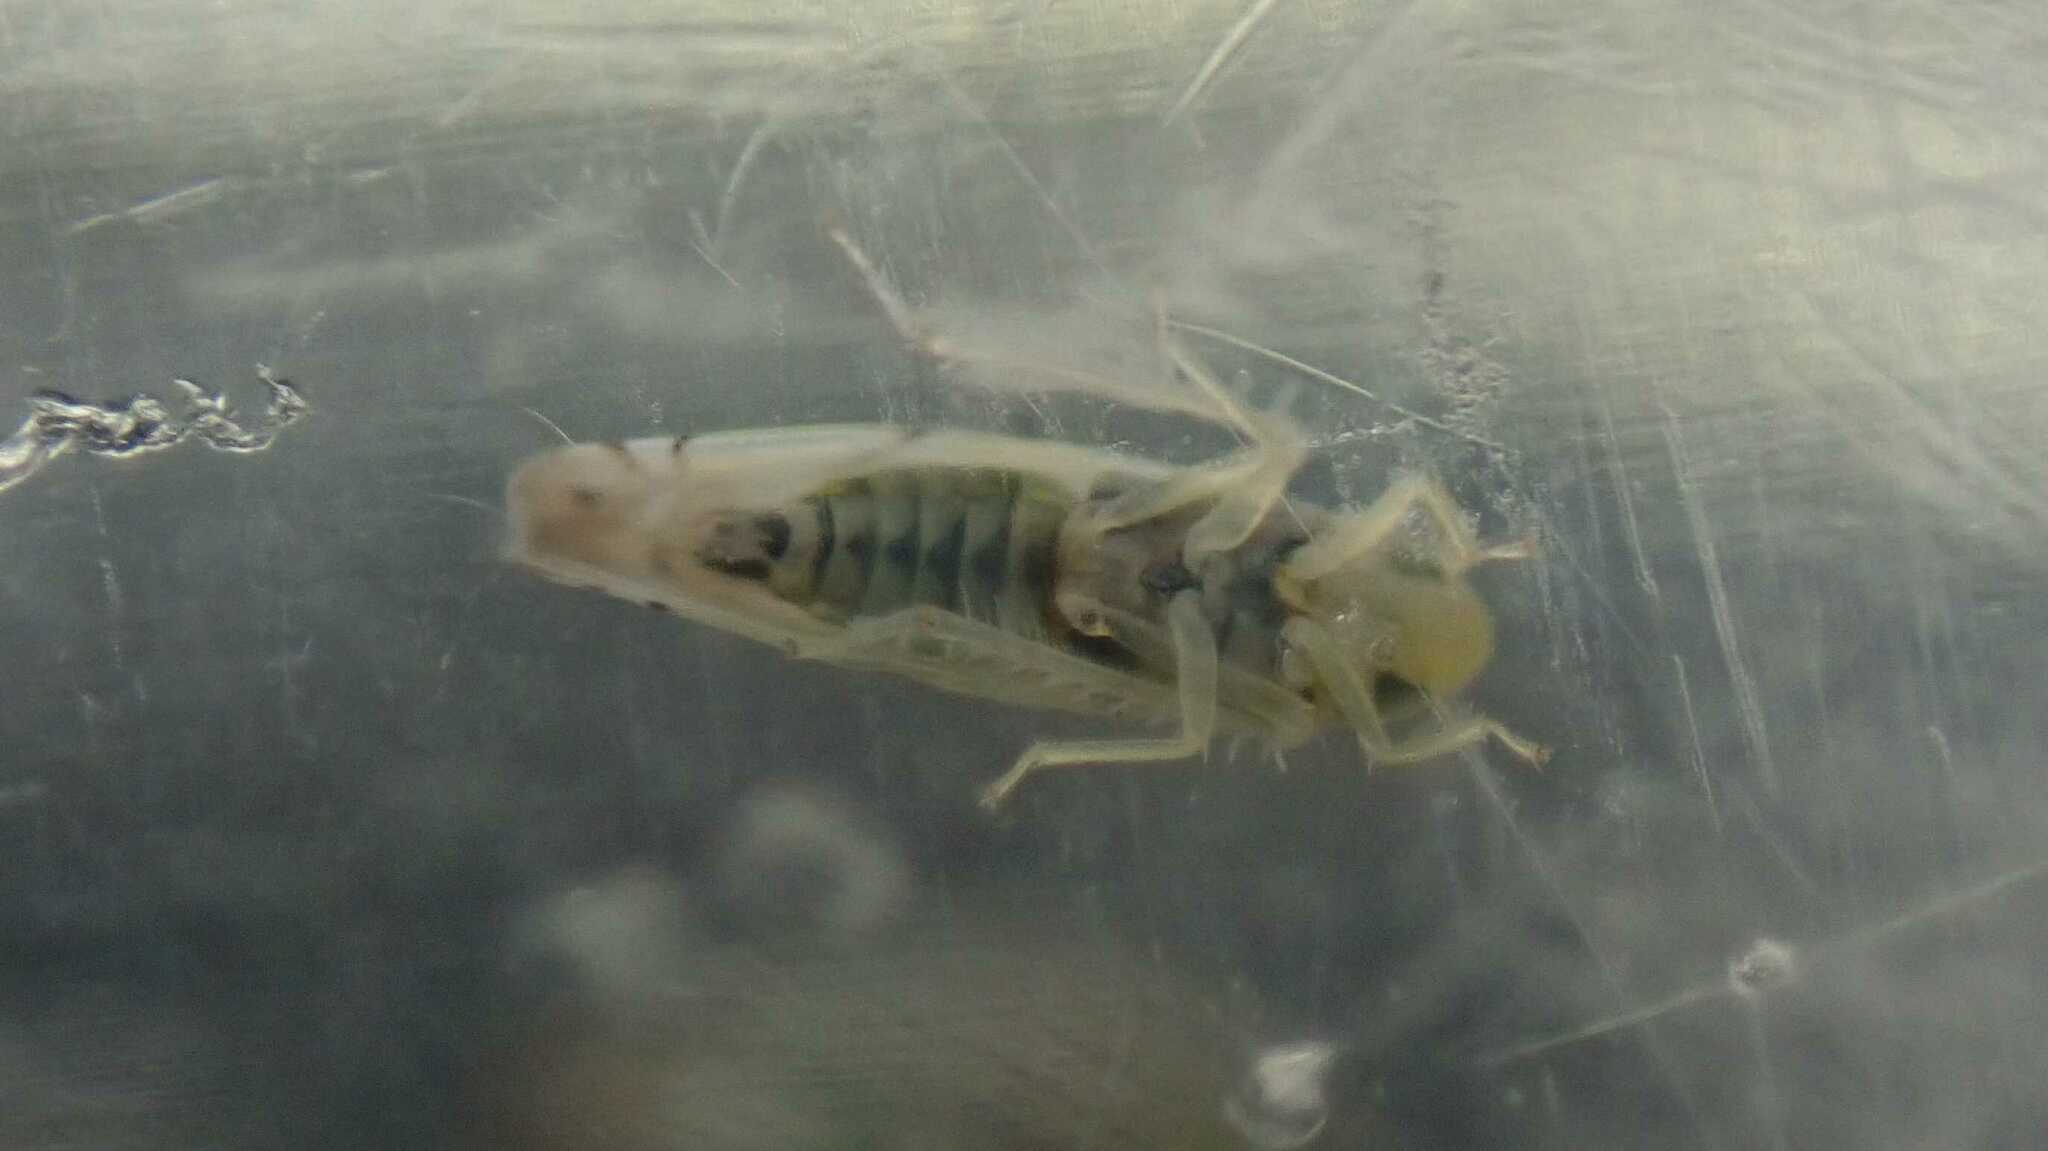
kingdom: Animalia
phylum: Arthropoda
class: Insecta
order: Hemiptera
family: Cicadellidae
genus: Zyginella
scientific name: Zyginella pulchra
